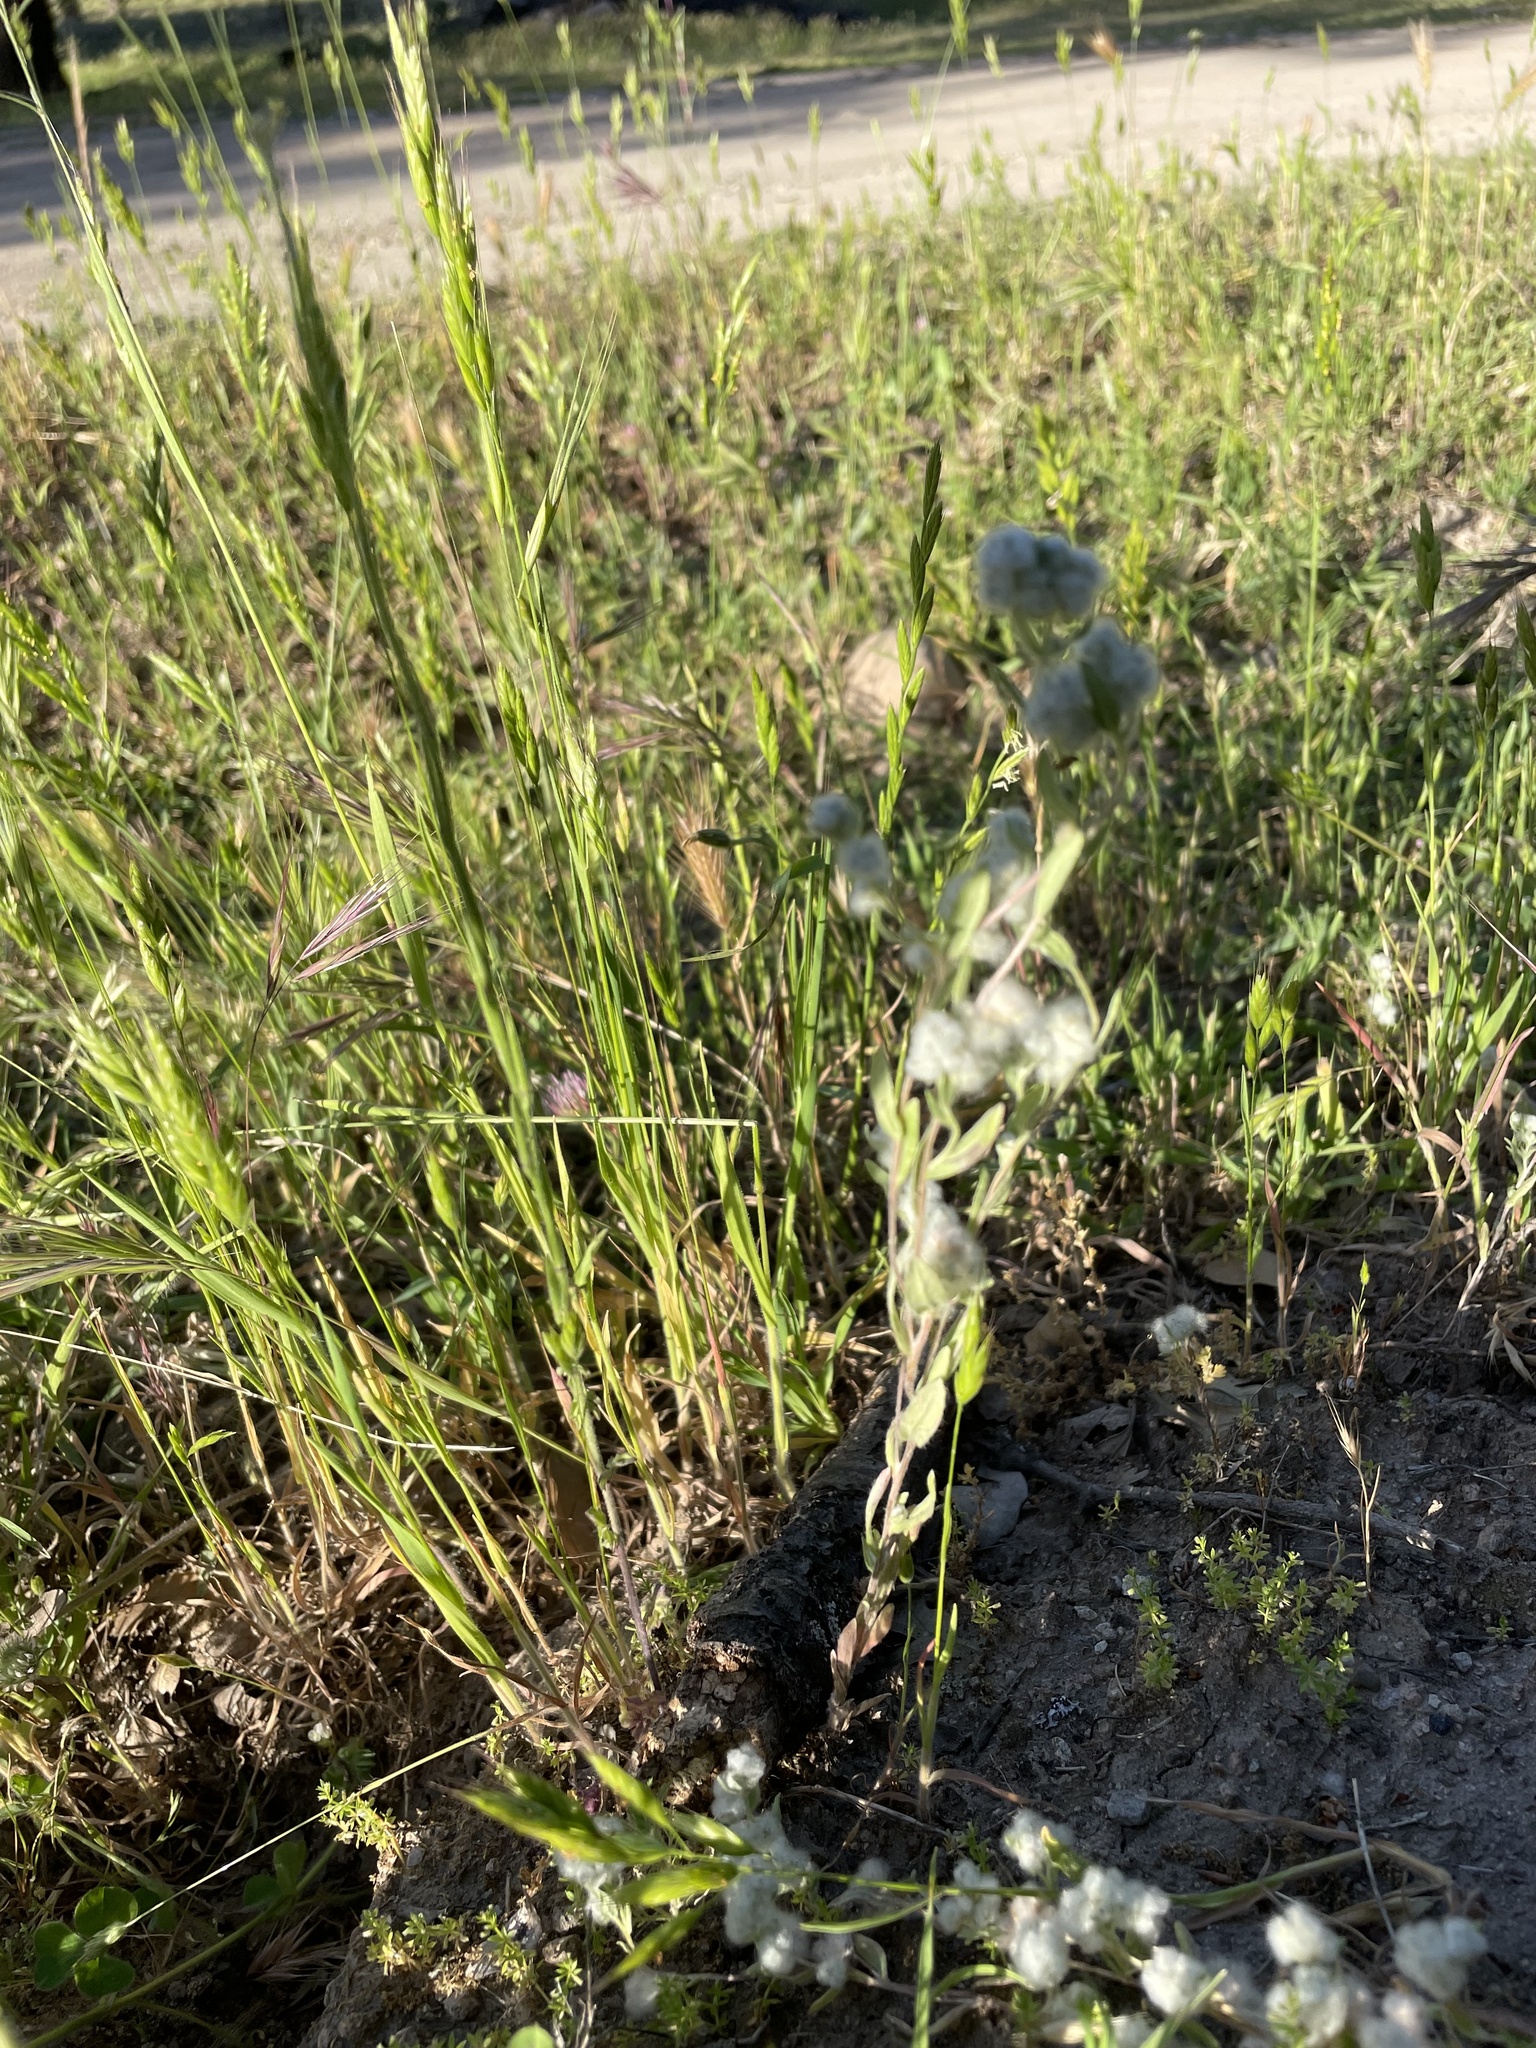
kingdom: Plantae
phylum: Tracheophyta
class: Magnoliopsida
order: Asterales
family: Asteraceae
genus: Bombycilaena
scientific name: Bombycilaena californica
